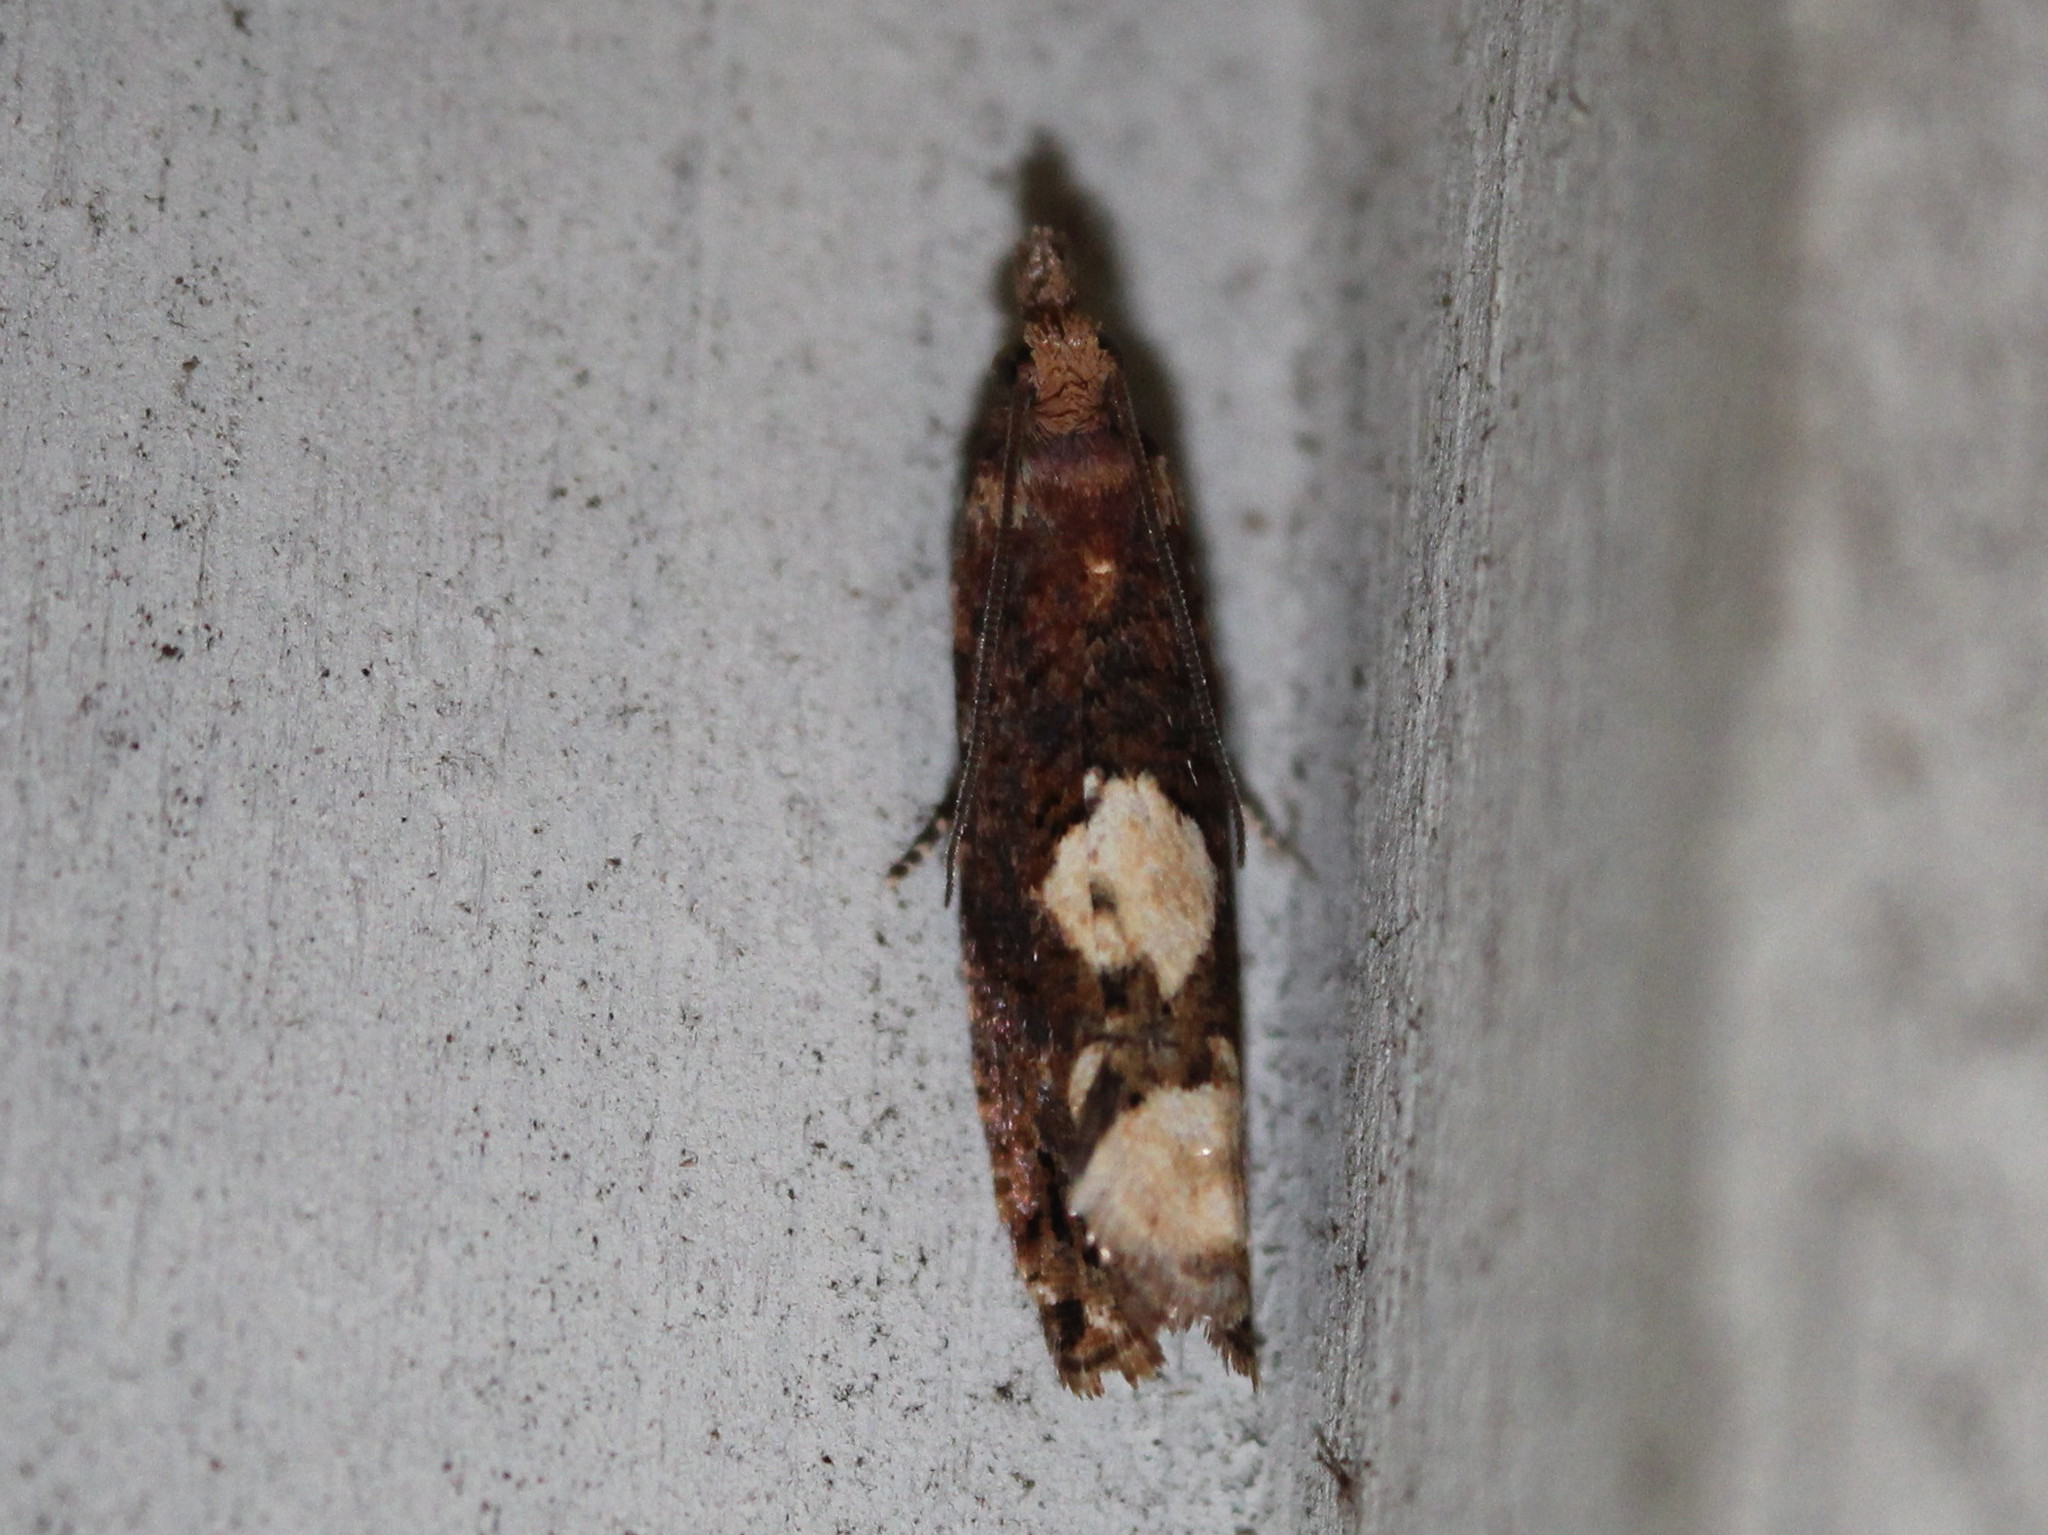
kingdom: Animalia
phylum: Arthropoda
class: Insecta
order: Lepidoptera
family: Tortricidae
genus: Epinotia
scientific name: Epinotia trigonella
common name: White-blotch bell
